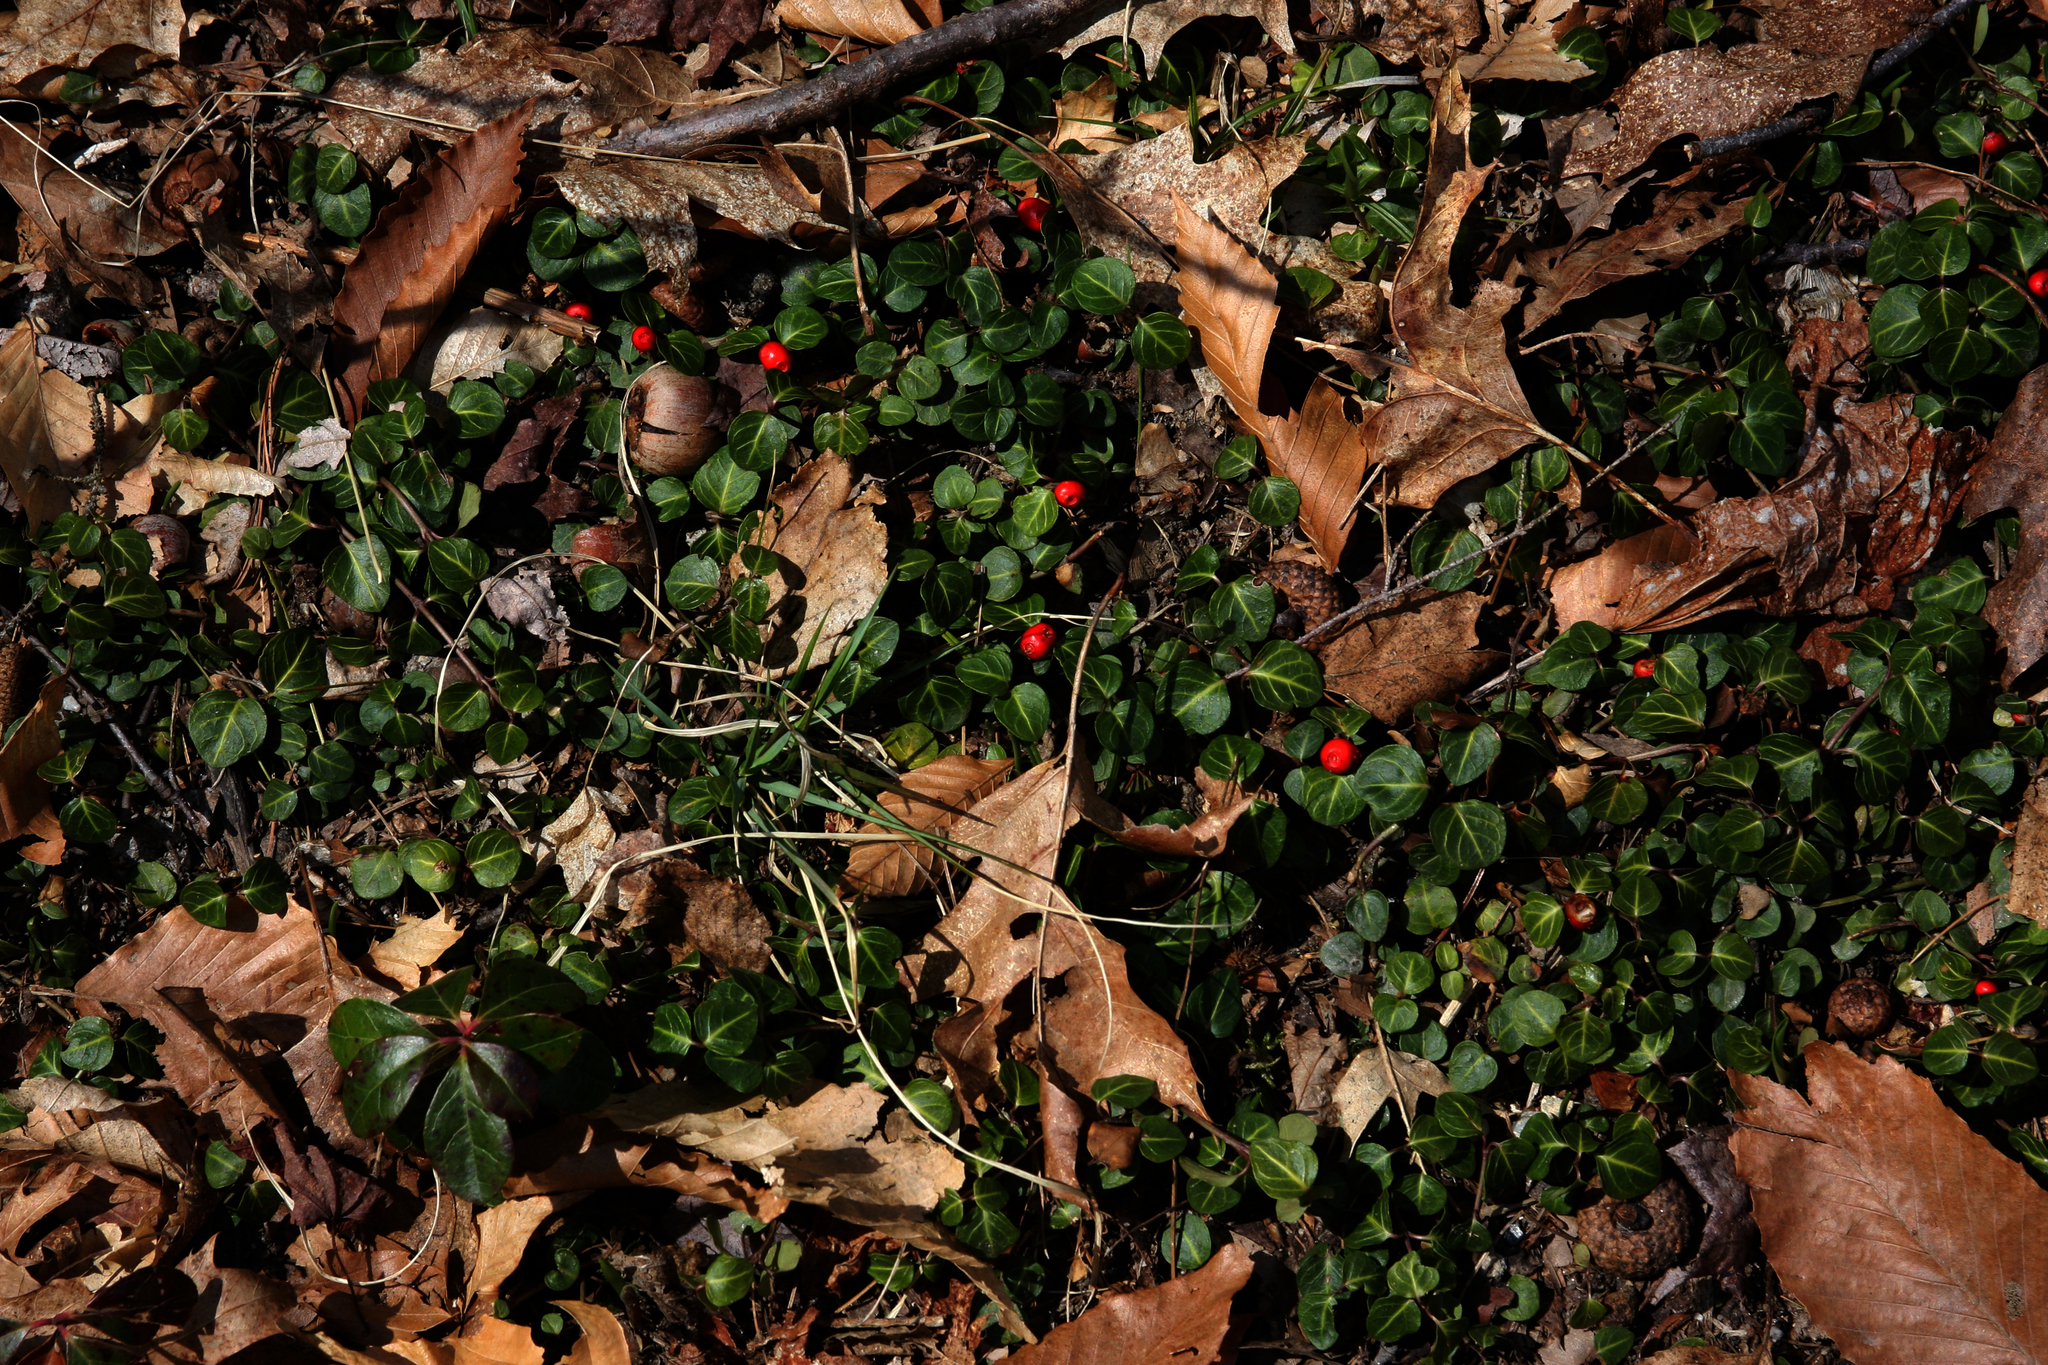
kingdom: Plantae
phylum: Tracheophyta
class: Magnoliopsida
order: Ericales
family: Ericaceae
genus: Gaultheria
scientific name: Gaultheria procumbens
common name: Checkerberry
